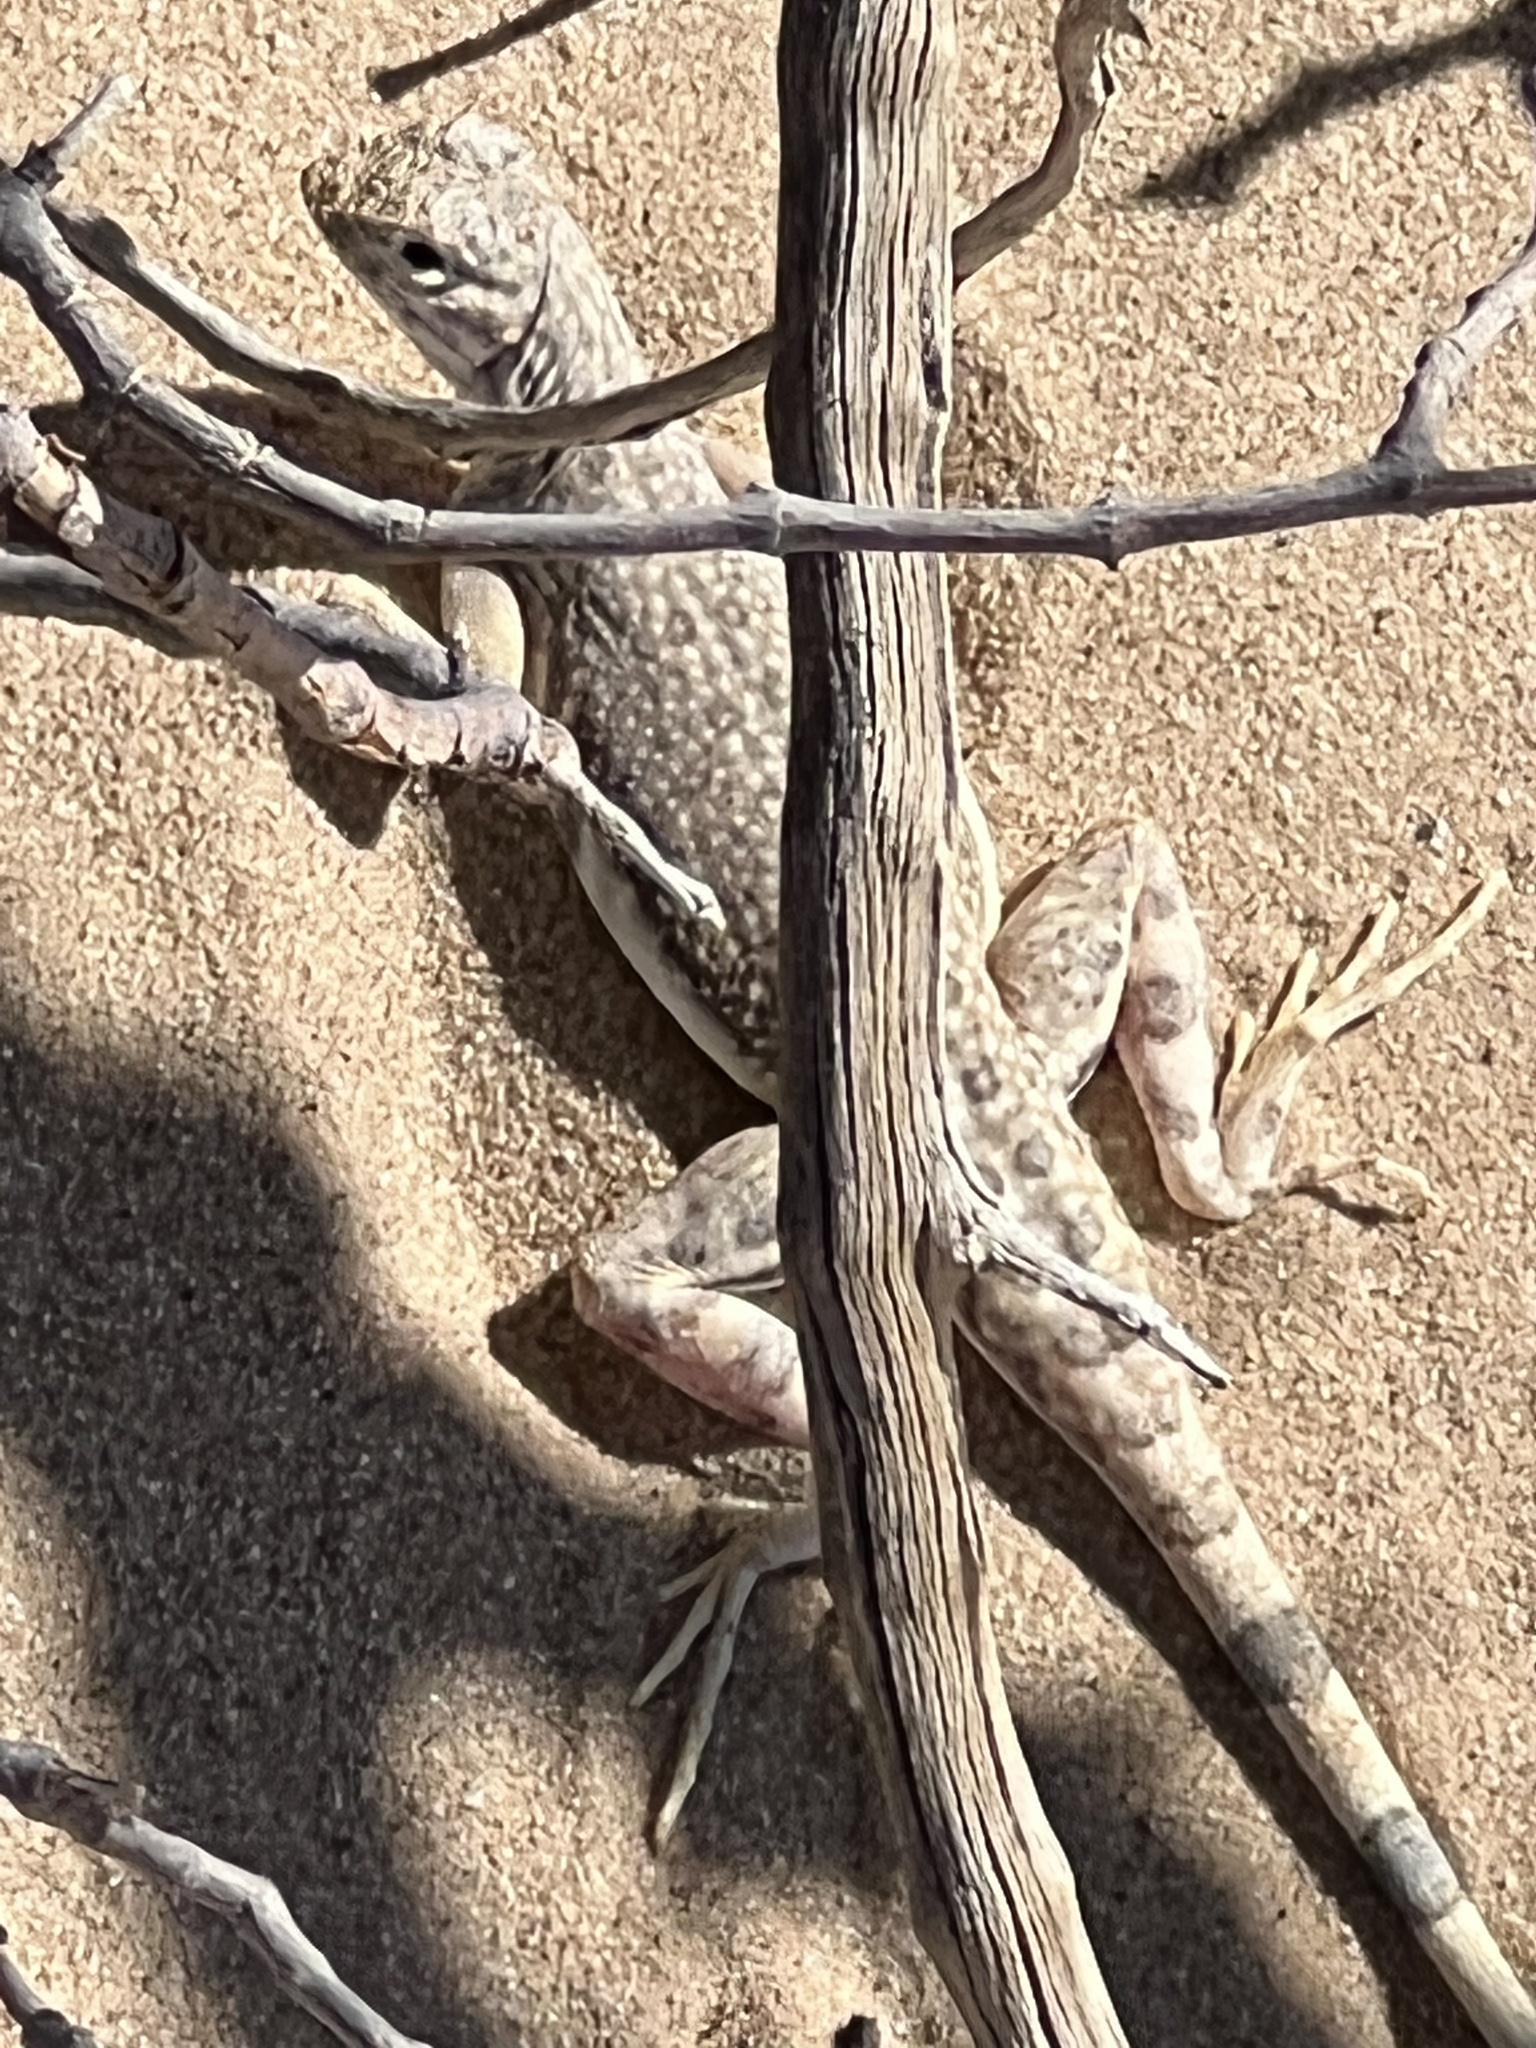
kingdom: Animalia
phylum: Chordata
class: Squamata
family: Phrynosomatidae
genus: Callisaurus
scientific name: Callisaurus draconoides
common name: Zebra-tailed lizard
